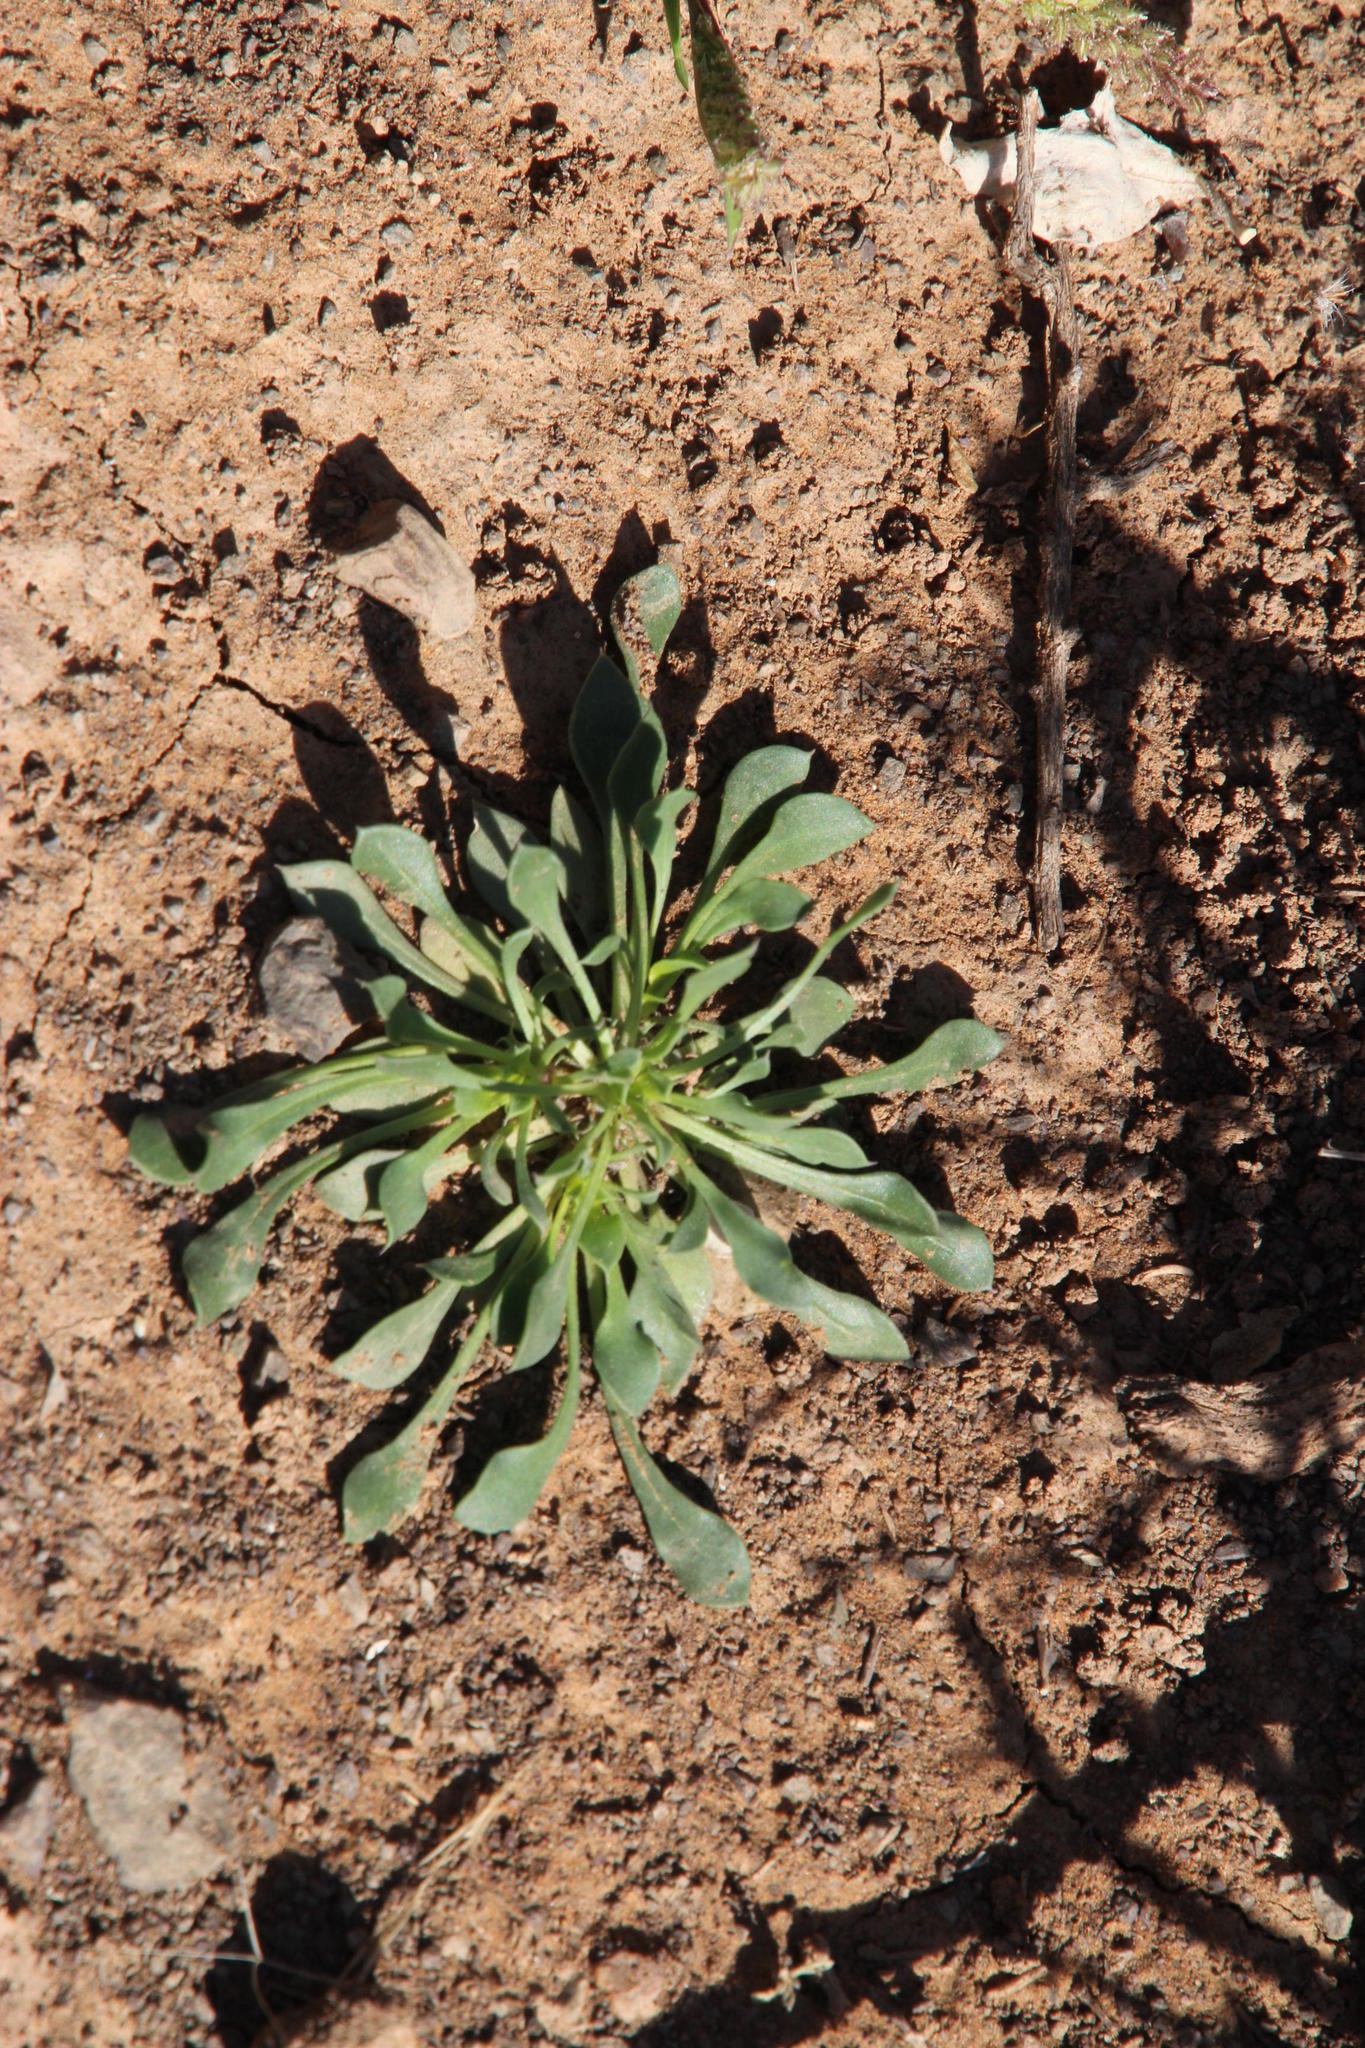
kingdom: Plantae
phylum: Tracheophyta
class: Magnoliopsida
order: Lamiales
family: Scrophulariaceae
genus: Aptosimum
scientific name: Aptosimum indivisum
